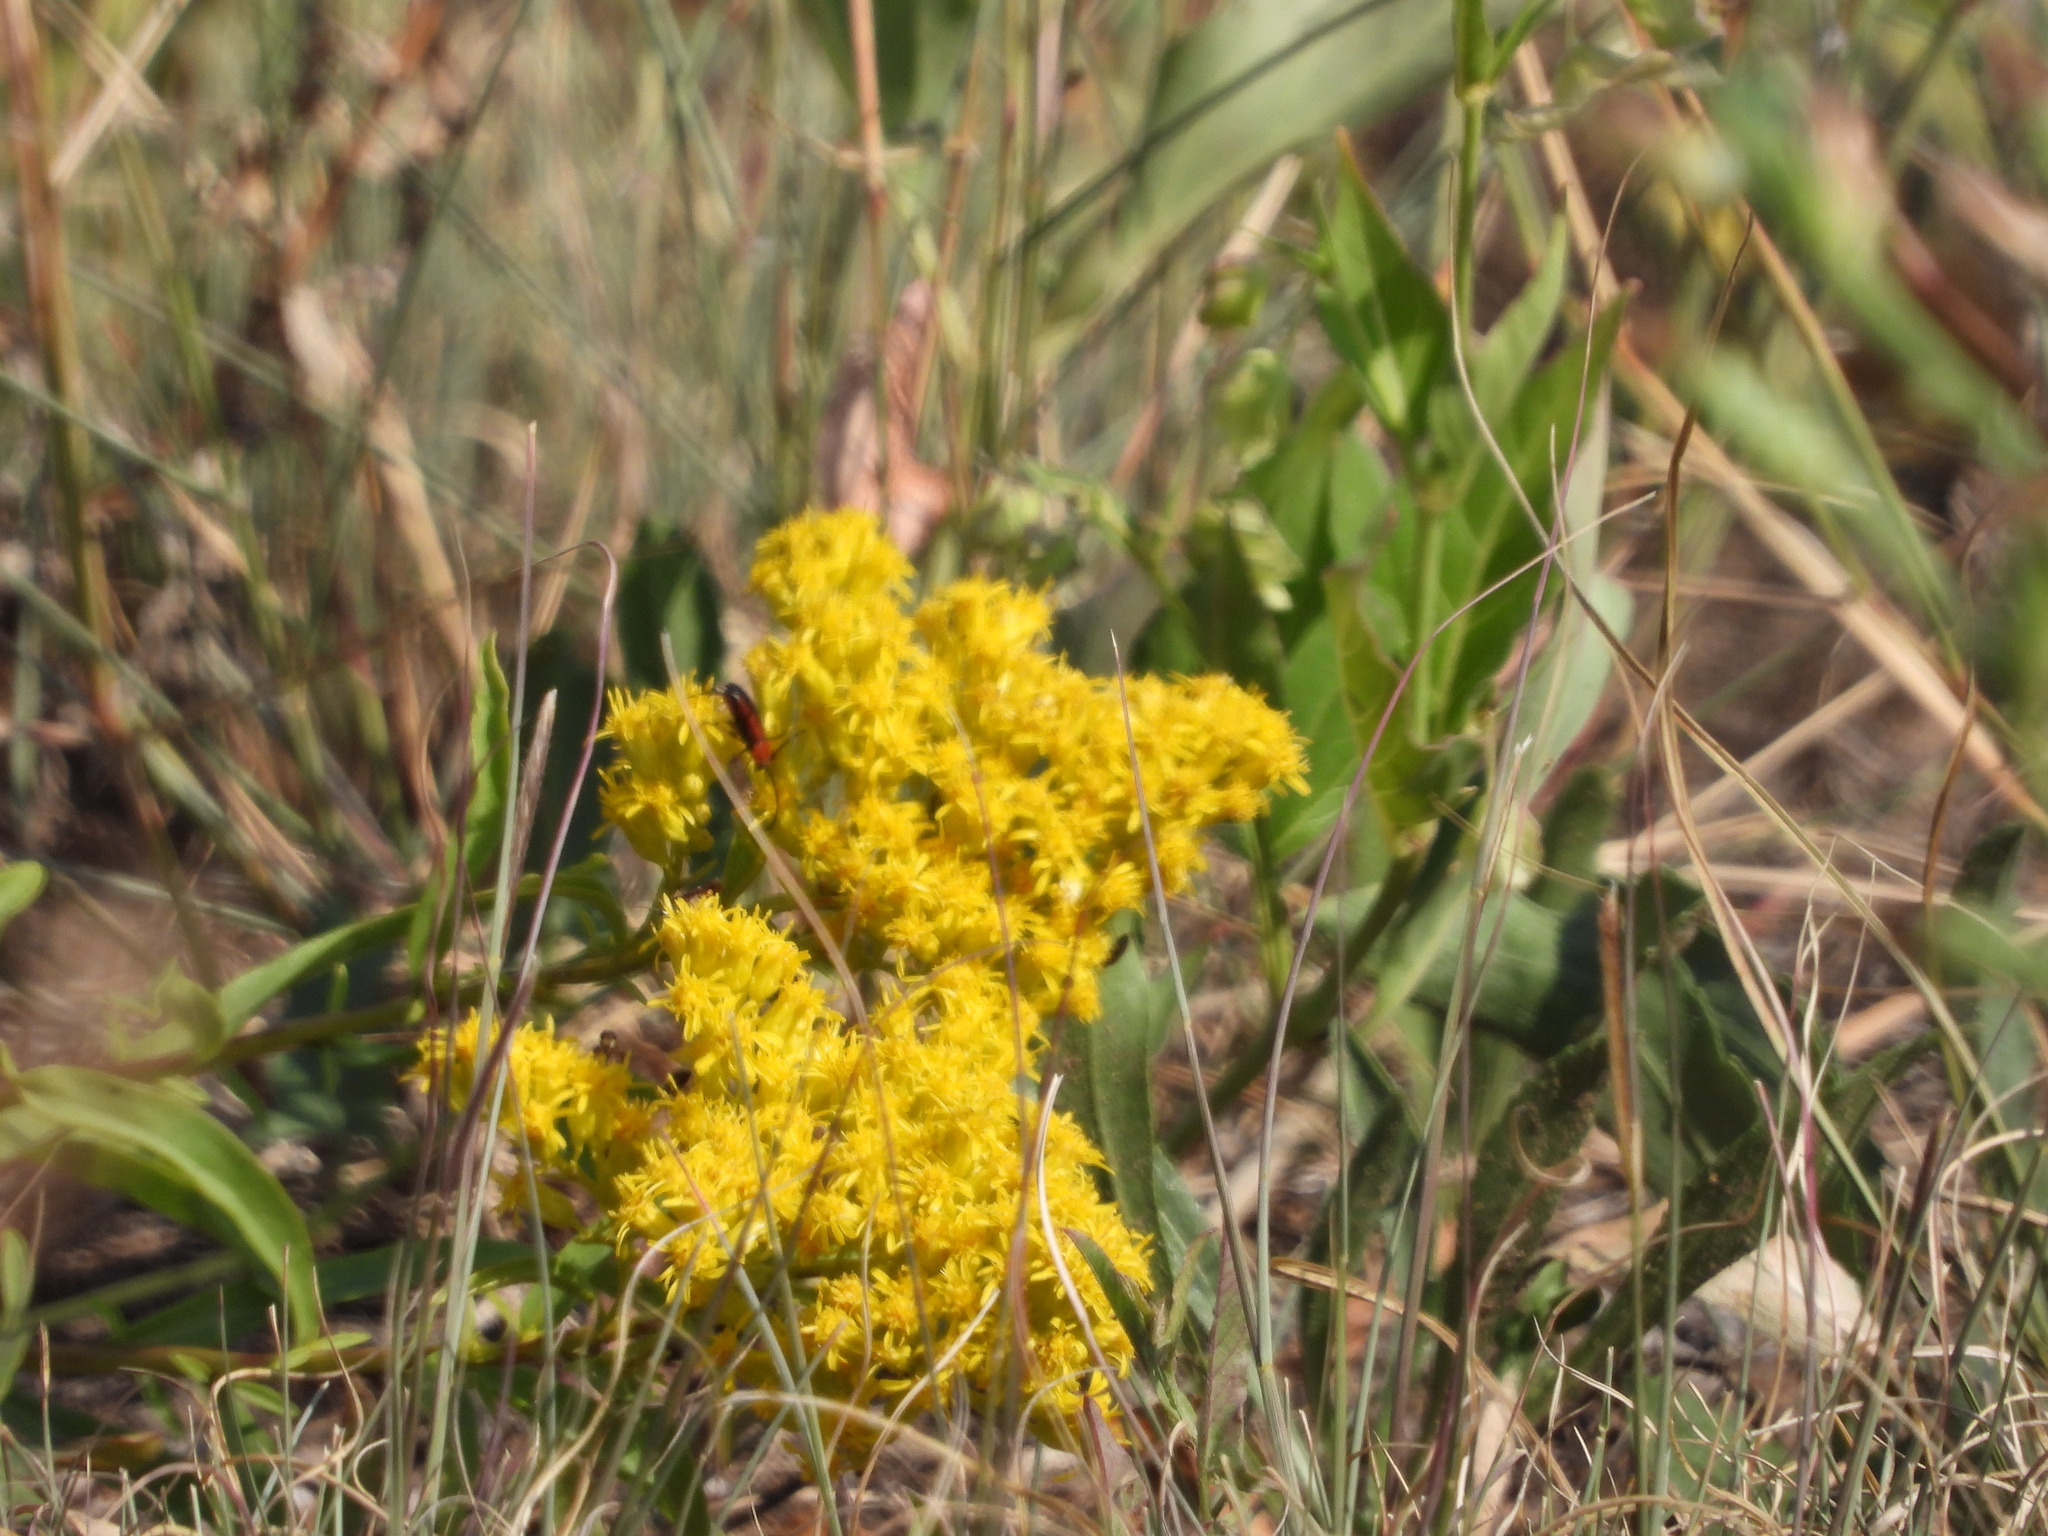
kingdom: Animalia
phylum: Arthropoda
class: Insecta
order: Coleoptera
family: Cerambycidae
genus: Batyle
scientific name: Batyle suturalis
